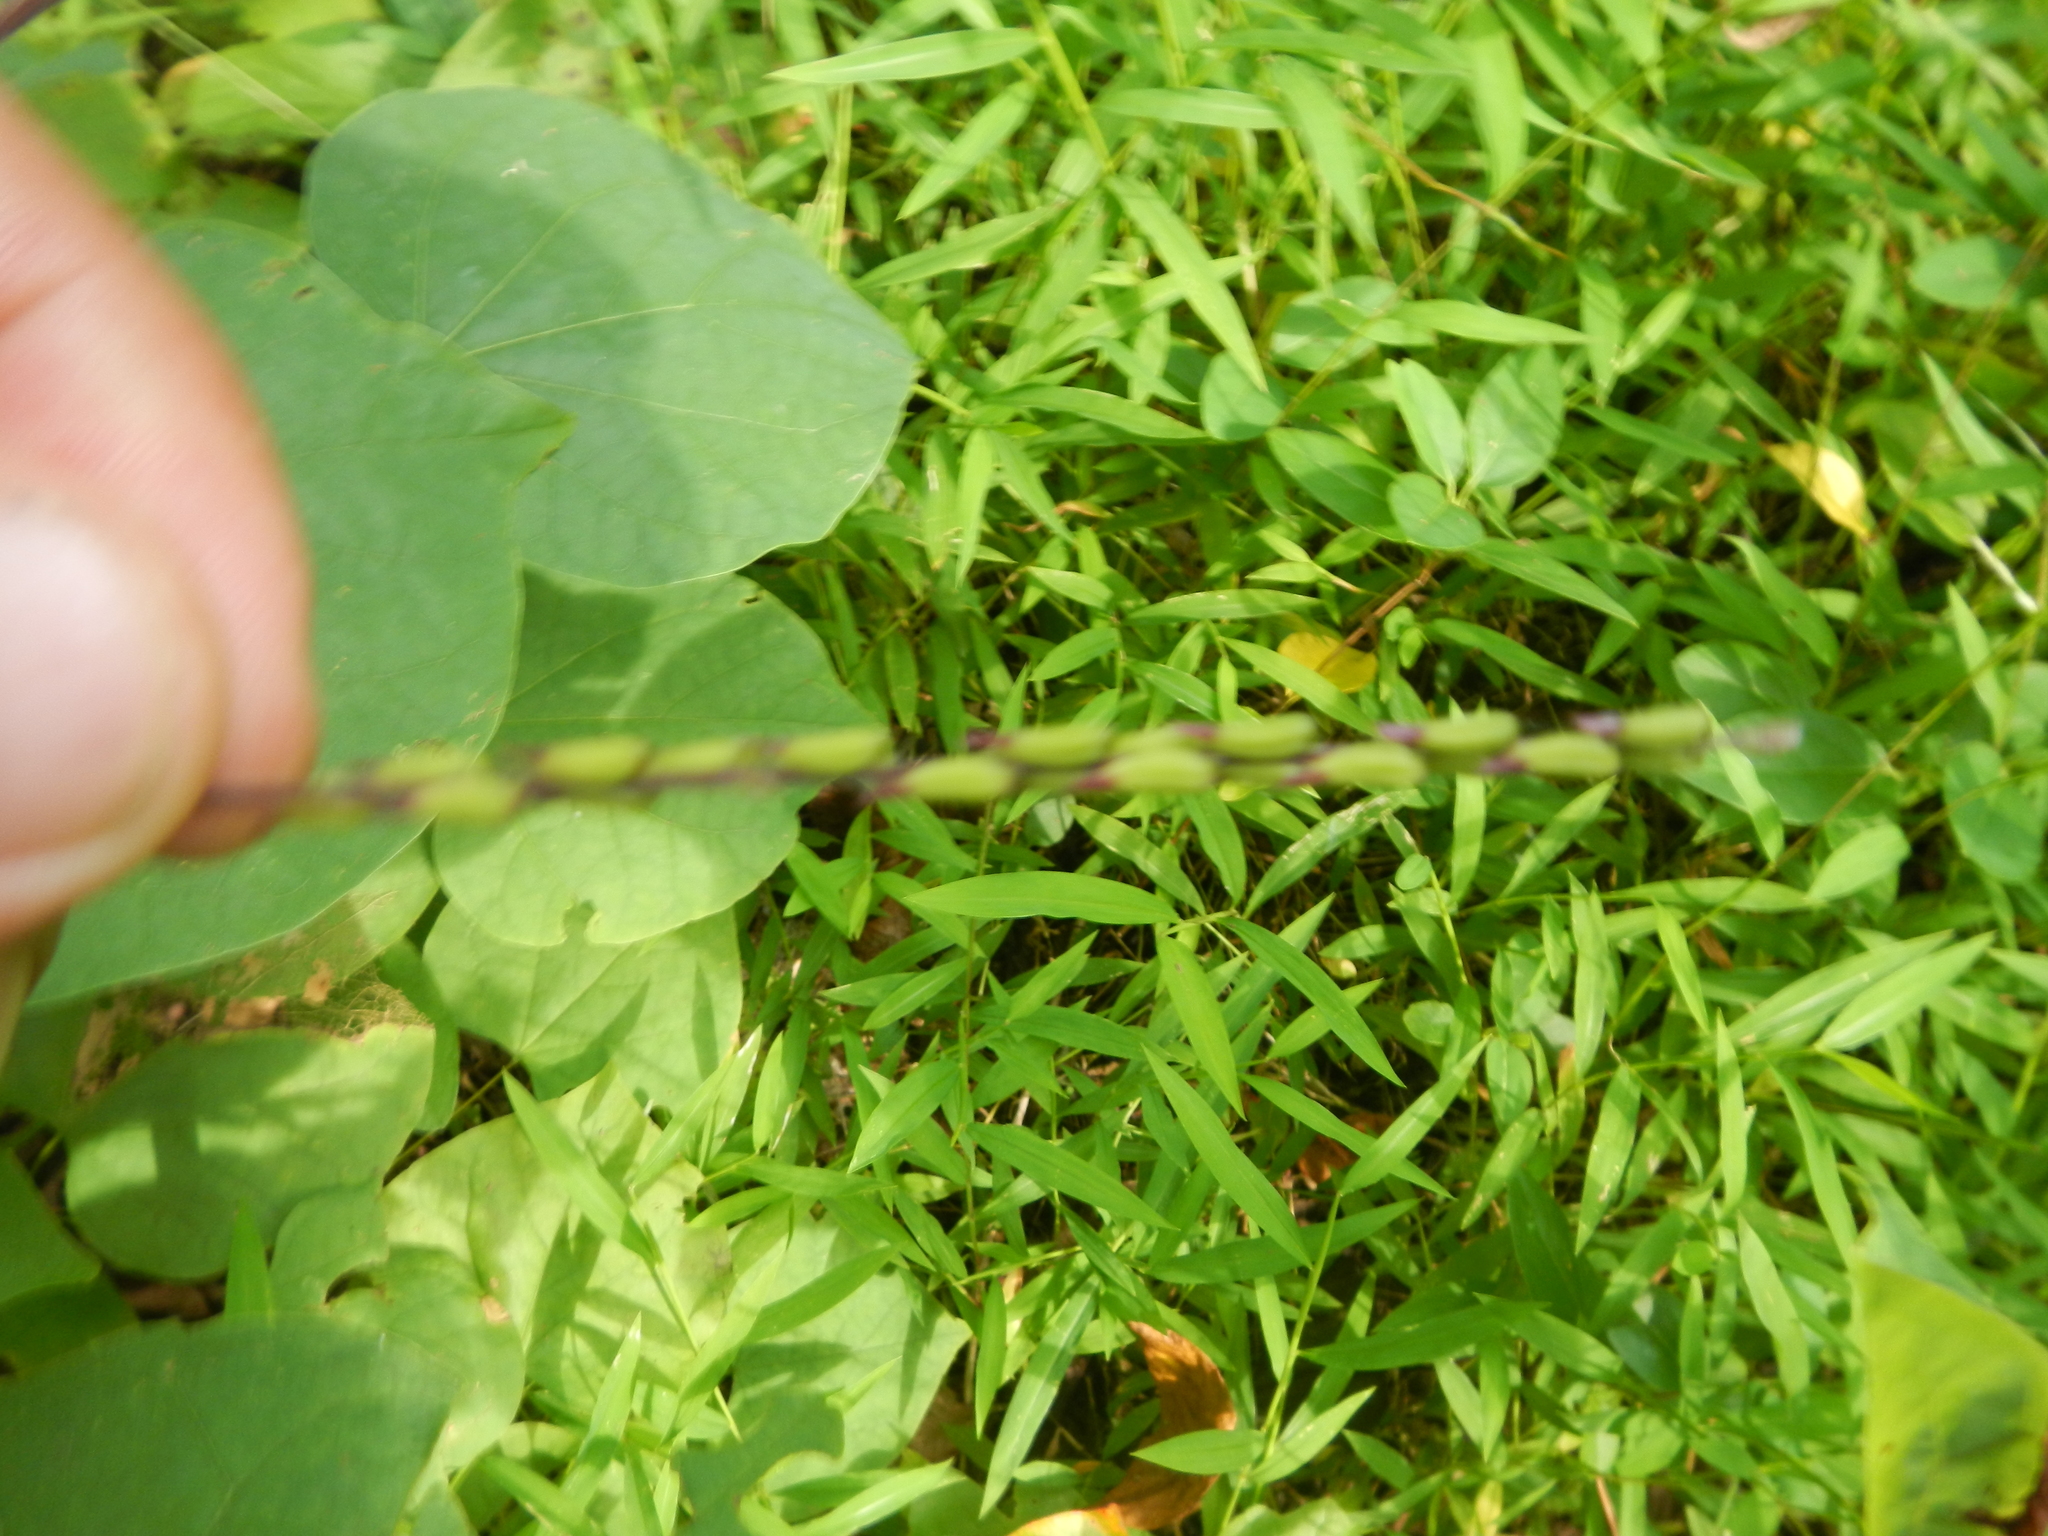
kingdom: Plantae
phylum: Tracheophyta
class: Magnoliopsida
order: Lamiales
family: Phrymaceae
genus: Phryma
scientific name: Phryma leptostachya
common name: American lopseed
